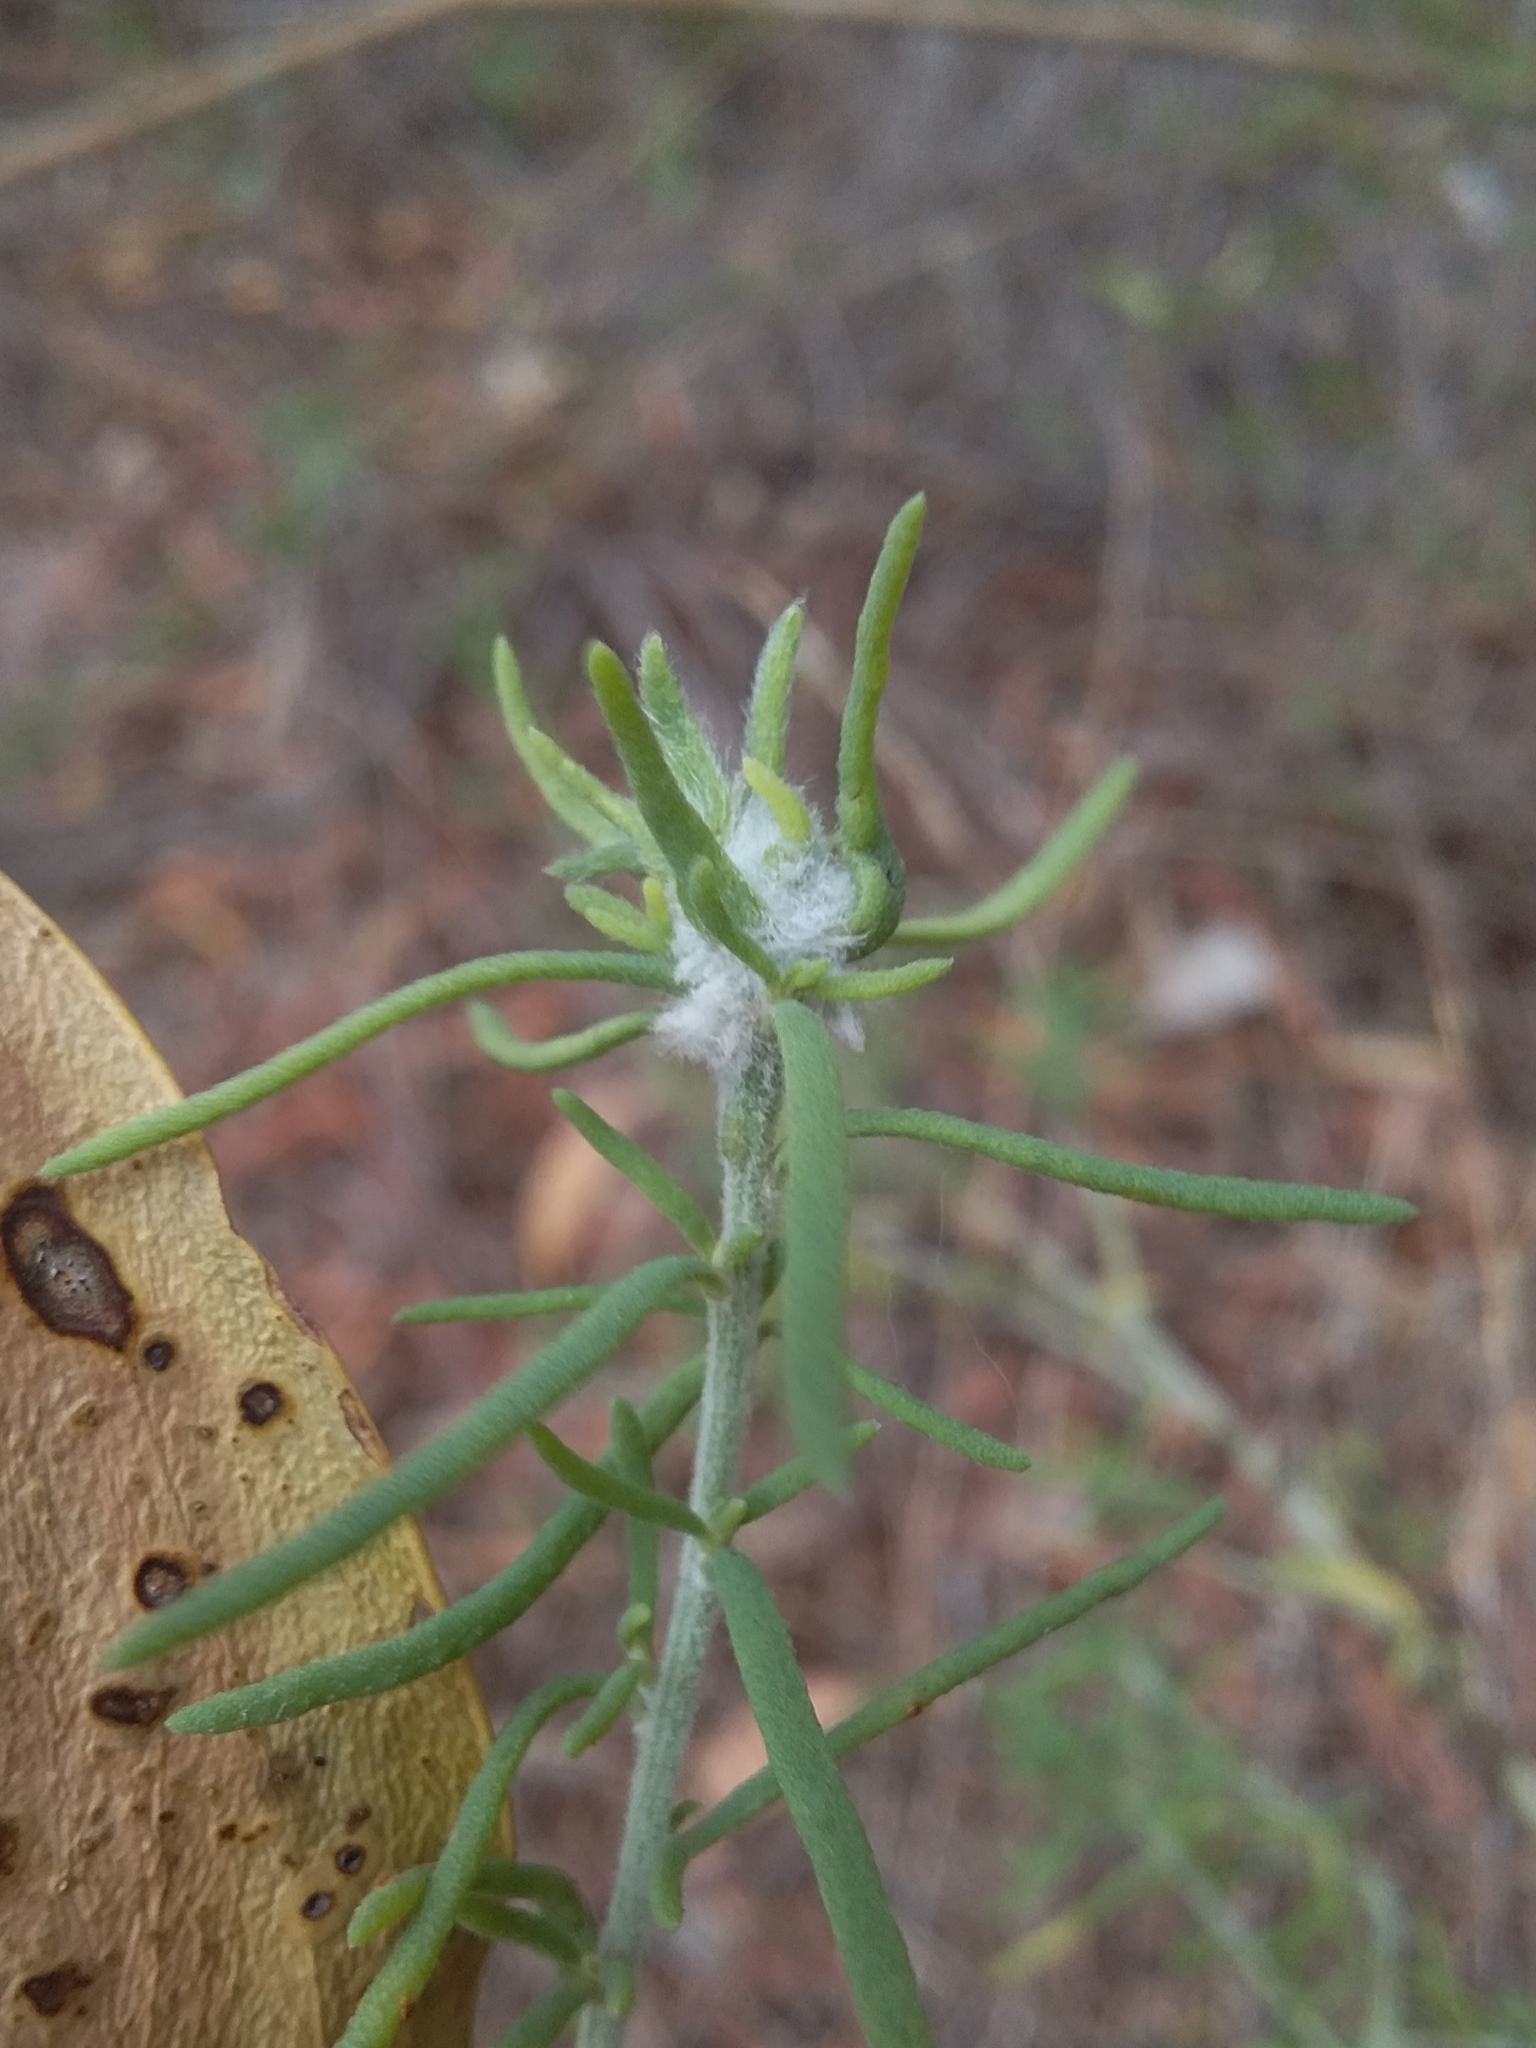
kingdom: Animalia
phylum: Arthropoda
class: Insecta
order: Diptera
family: Cecidomyiidae
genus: Asphondylia
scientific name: Asphondylia tonsura
